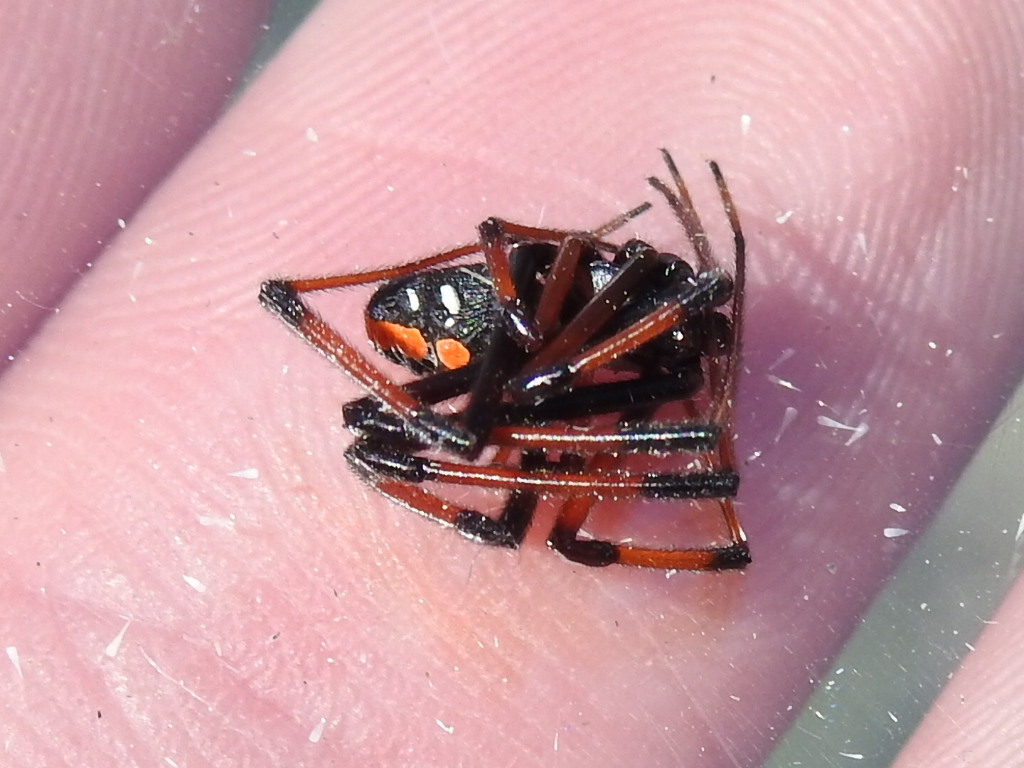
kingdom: Animalia
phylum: Arthropoda
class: Arachnida
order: Araneae
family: Theridiidae
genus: Latrodectus
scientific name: Latrodectus mactans
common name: Cobweb spiders
